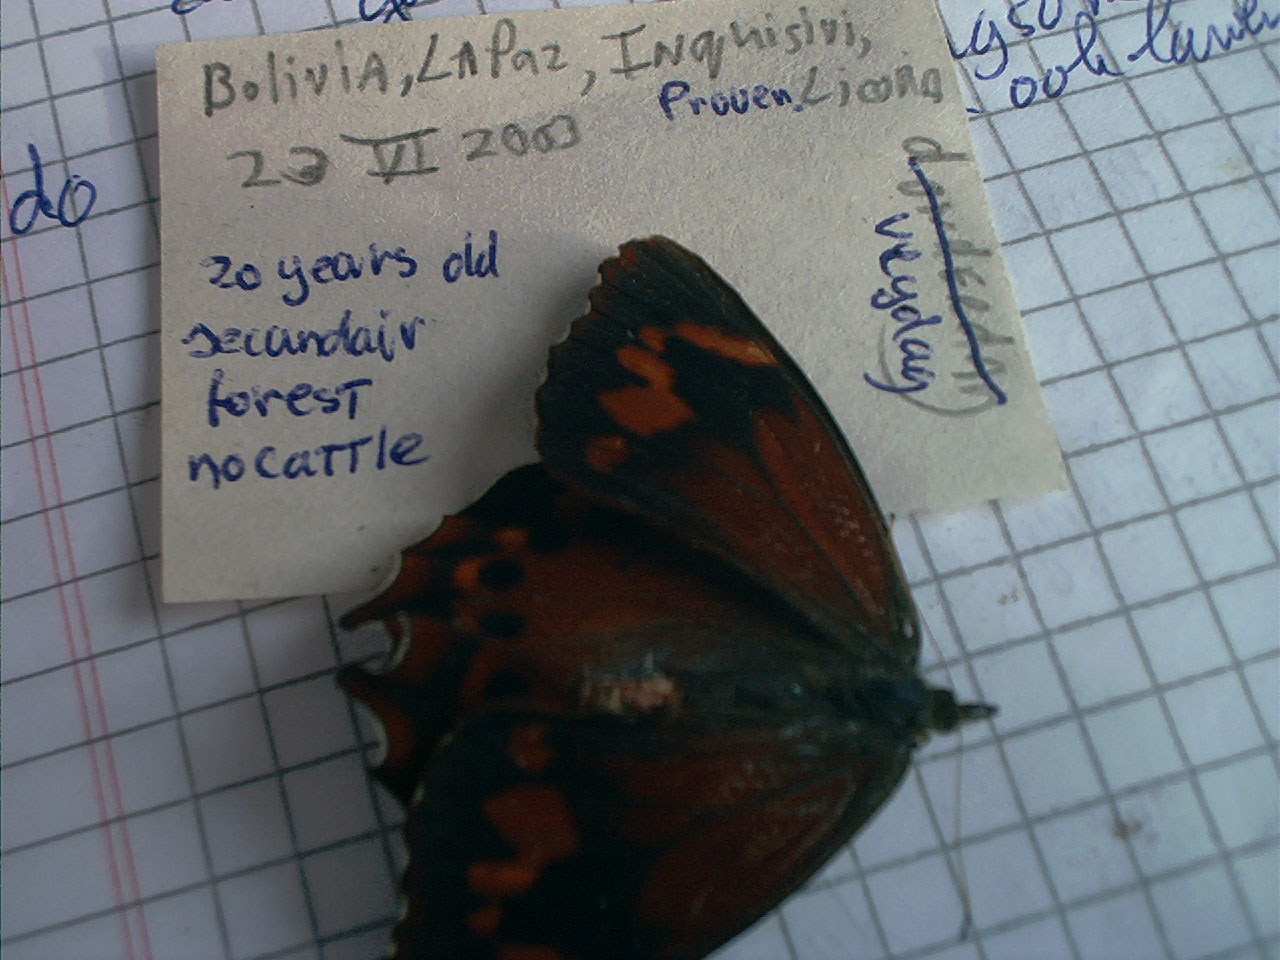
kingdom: Animalia
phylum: Arthropoda
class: Insecta
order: Lepidoptera
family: Nymphalidae
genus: Lasiophila
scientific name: Lasiophila orbifera
